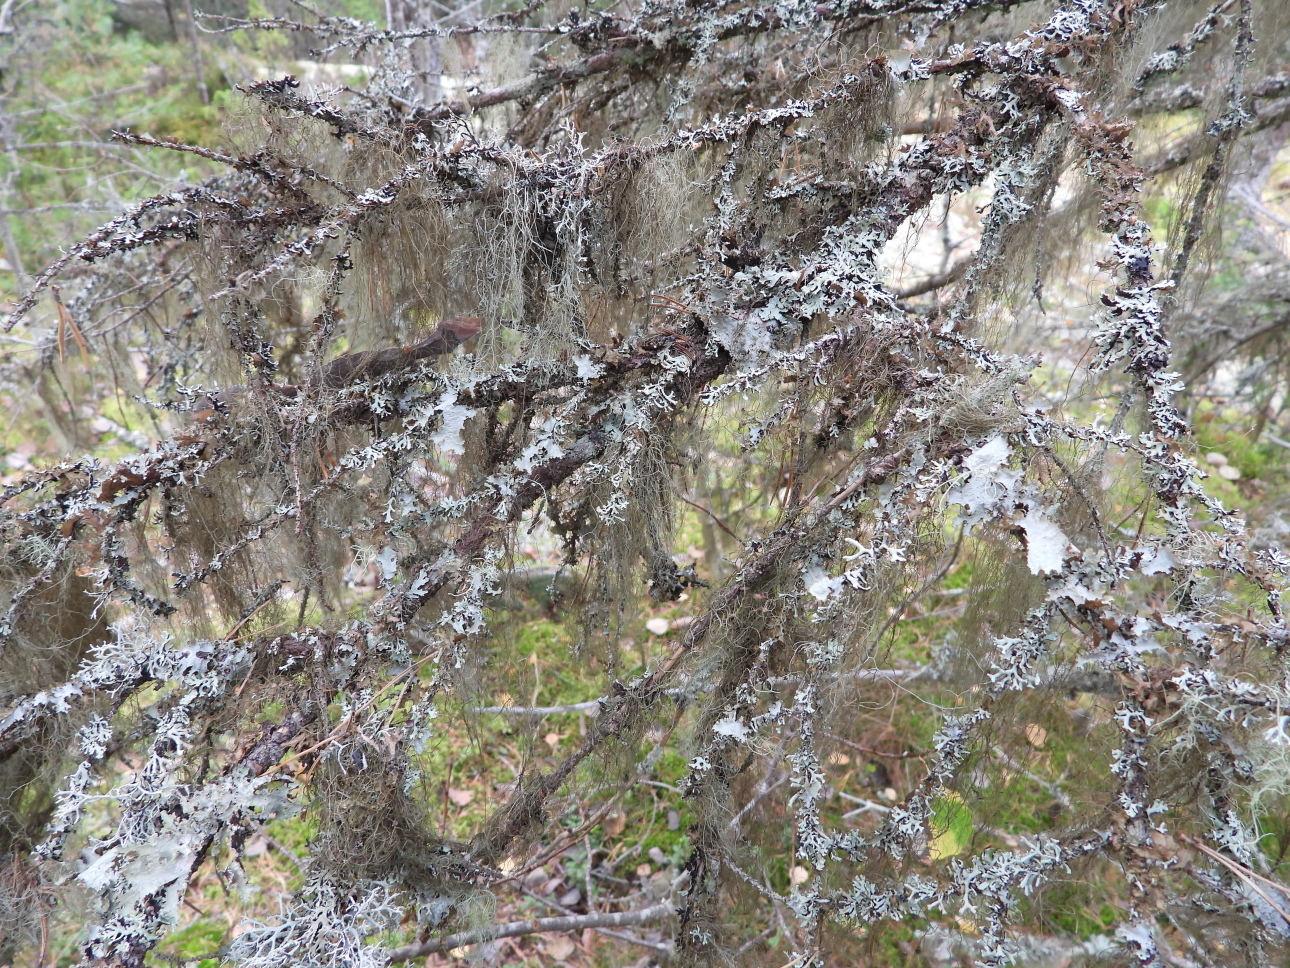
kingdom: Fungi
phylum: Ascomycota
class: Lecanoromycetes
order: Lecanorales
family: Parmeliaceae
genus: Bryoria
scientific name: Bryoria fuscescens
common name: Pale-footed horsehair lichen
